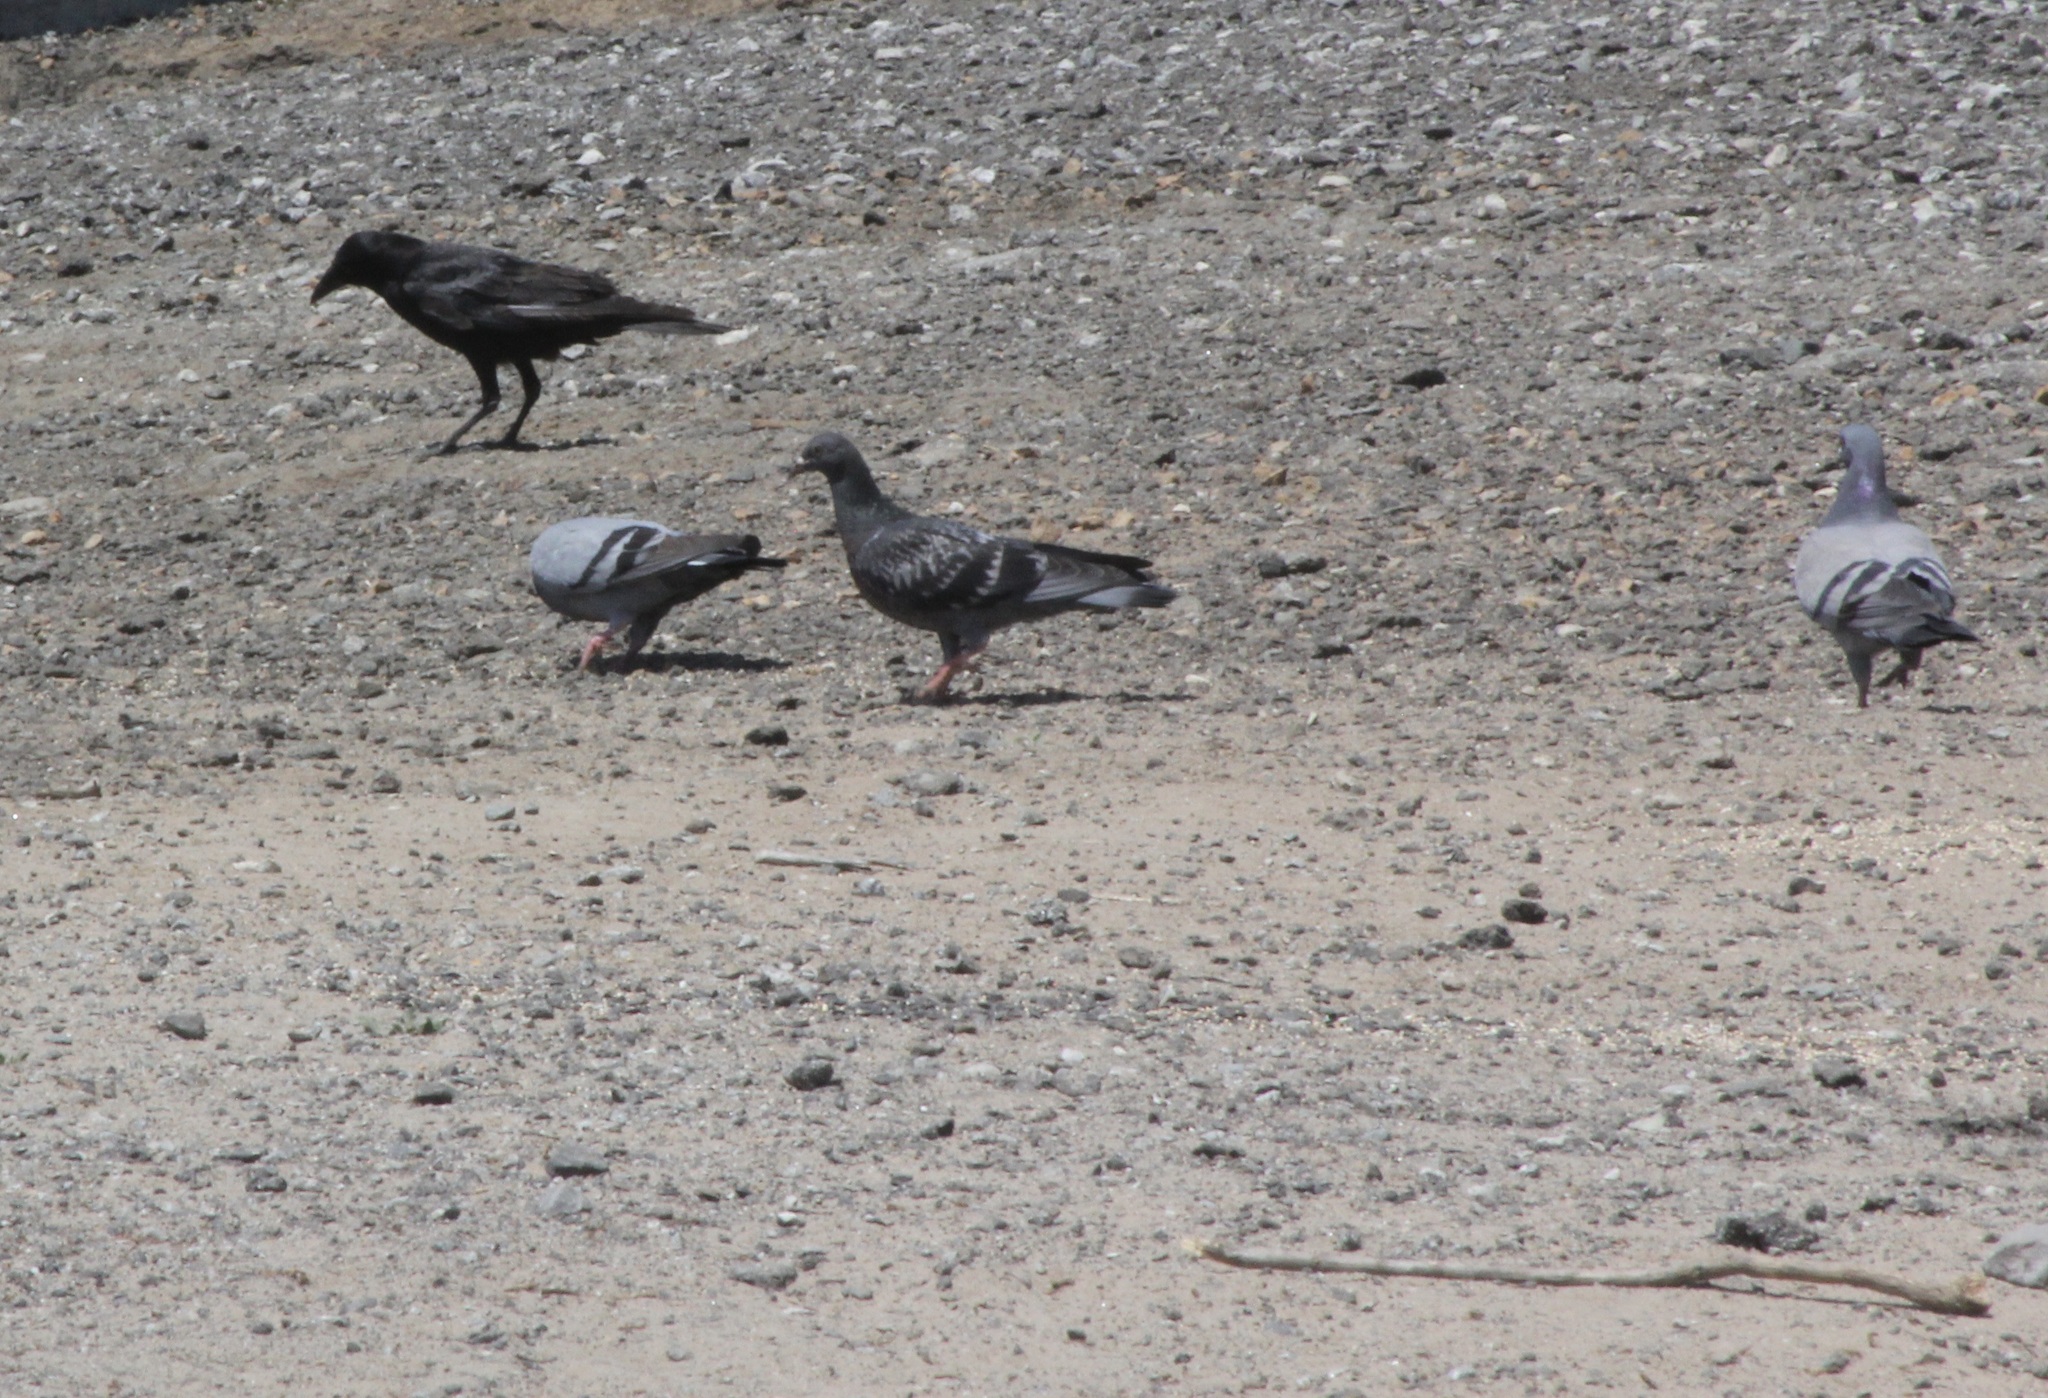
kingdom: Animalia
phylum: Chordata
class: Aves
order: Columbiformes
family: Columbidae
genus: Columba
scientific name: Columba livia
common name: Rock pigeon
